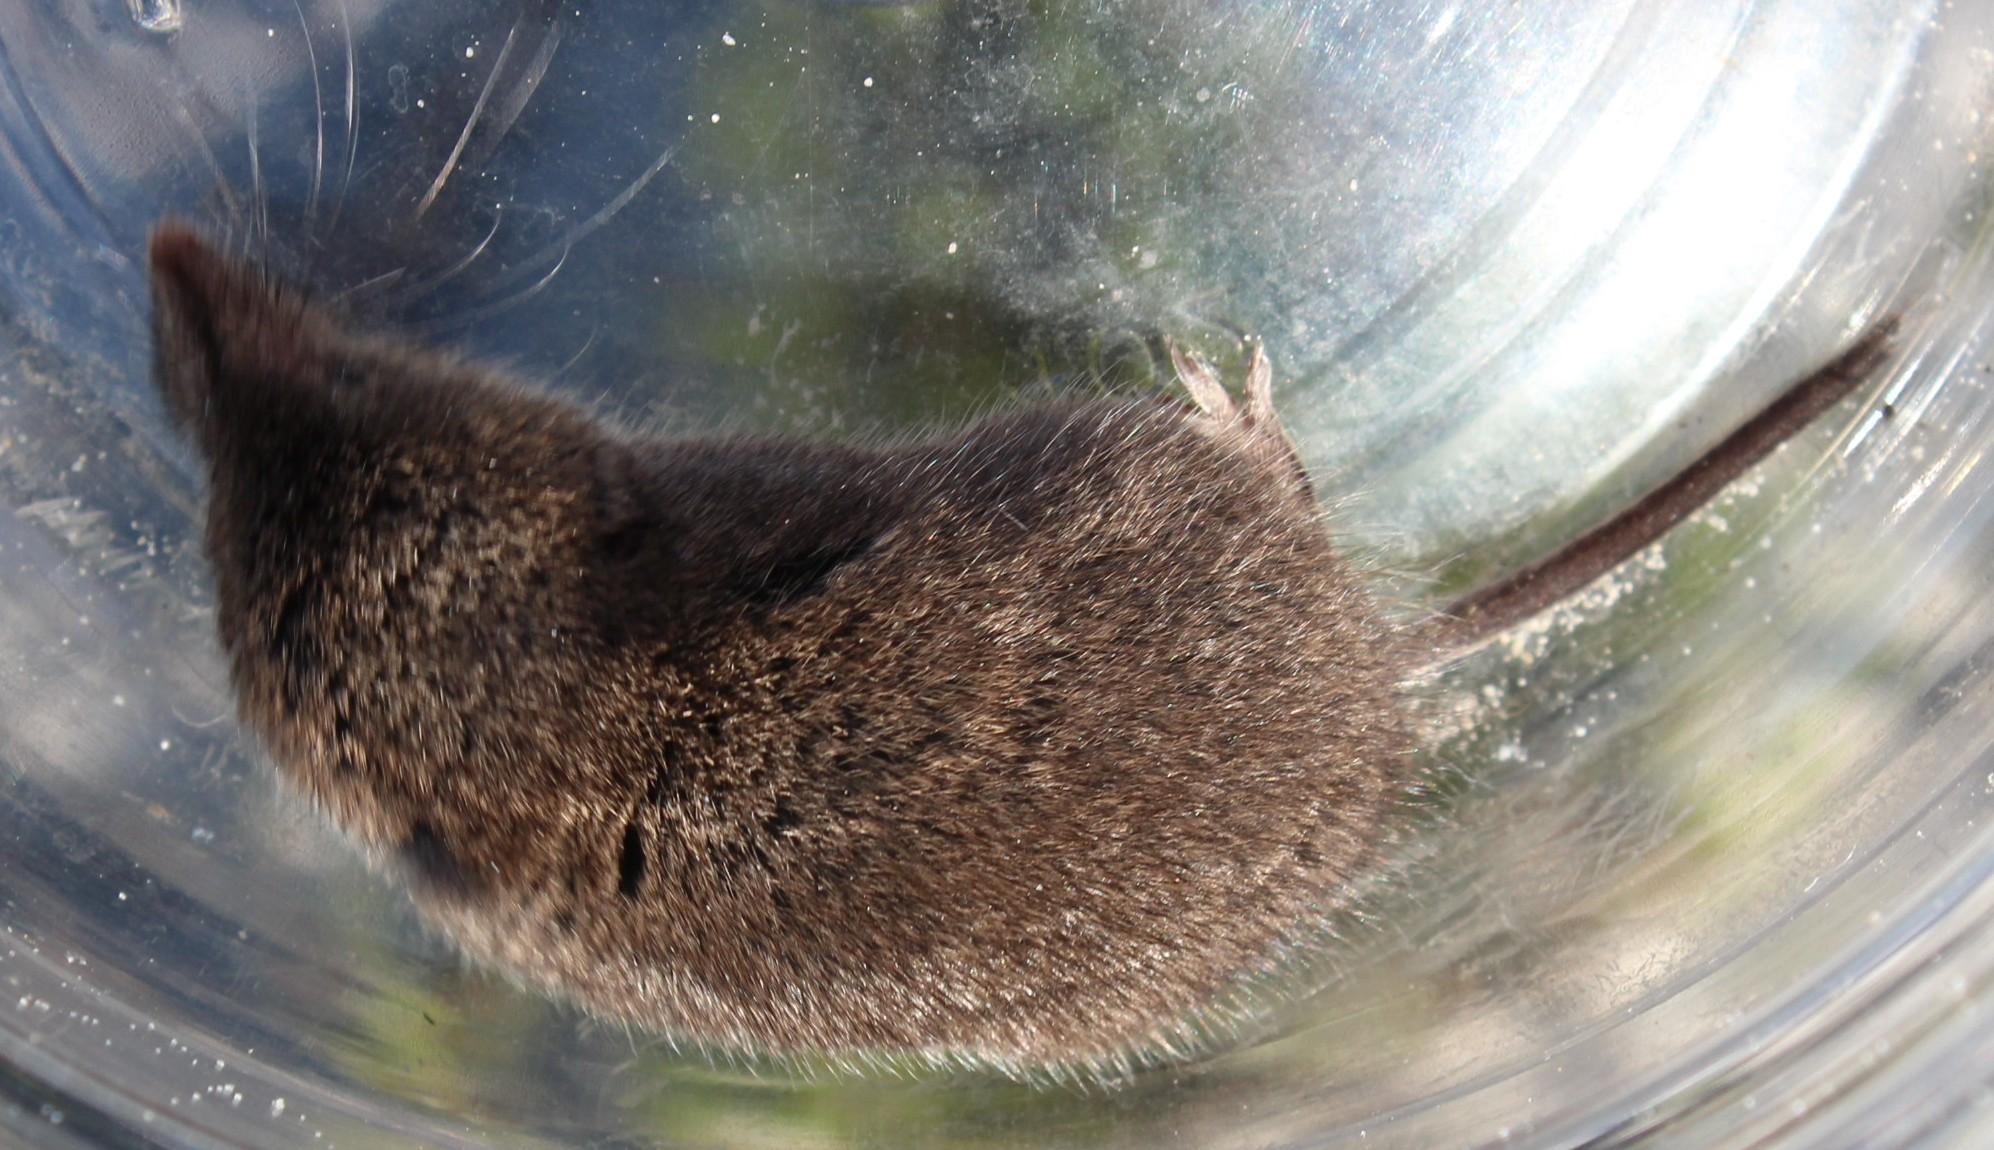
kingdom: Animalia
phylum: Chordata
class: Mammalia
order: Soricomorpha
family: Soricidae
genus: Myosorex
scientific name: Myosorex varius
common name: Forest shrew
